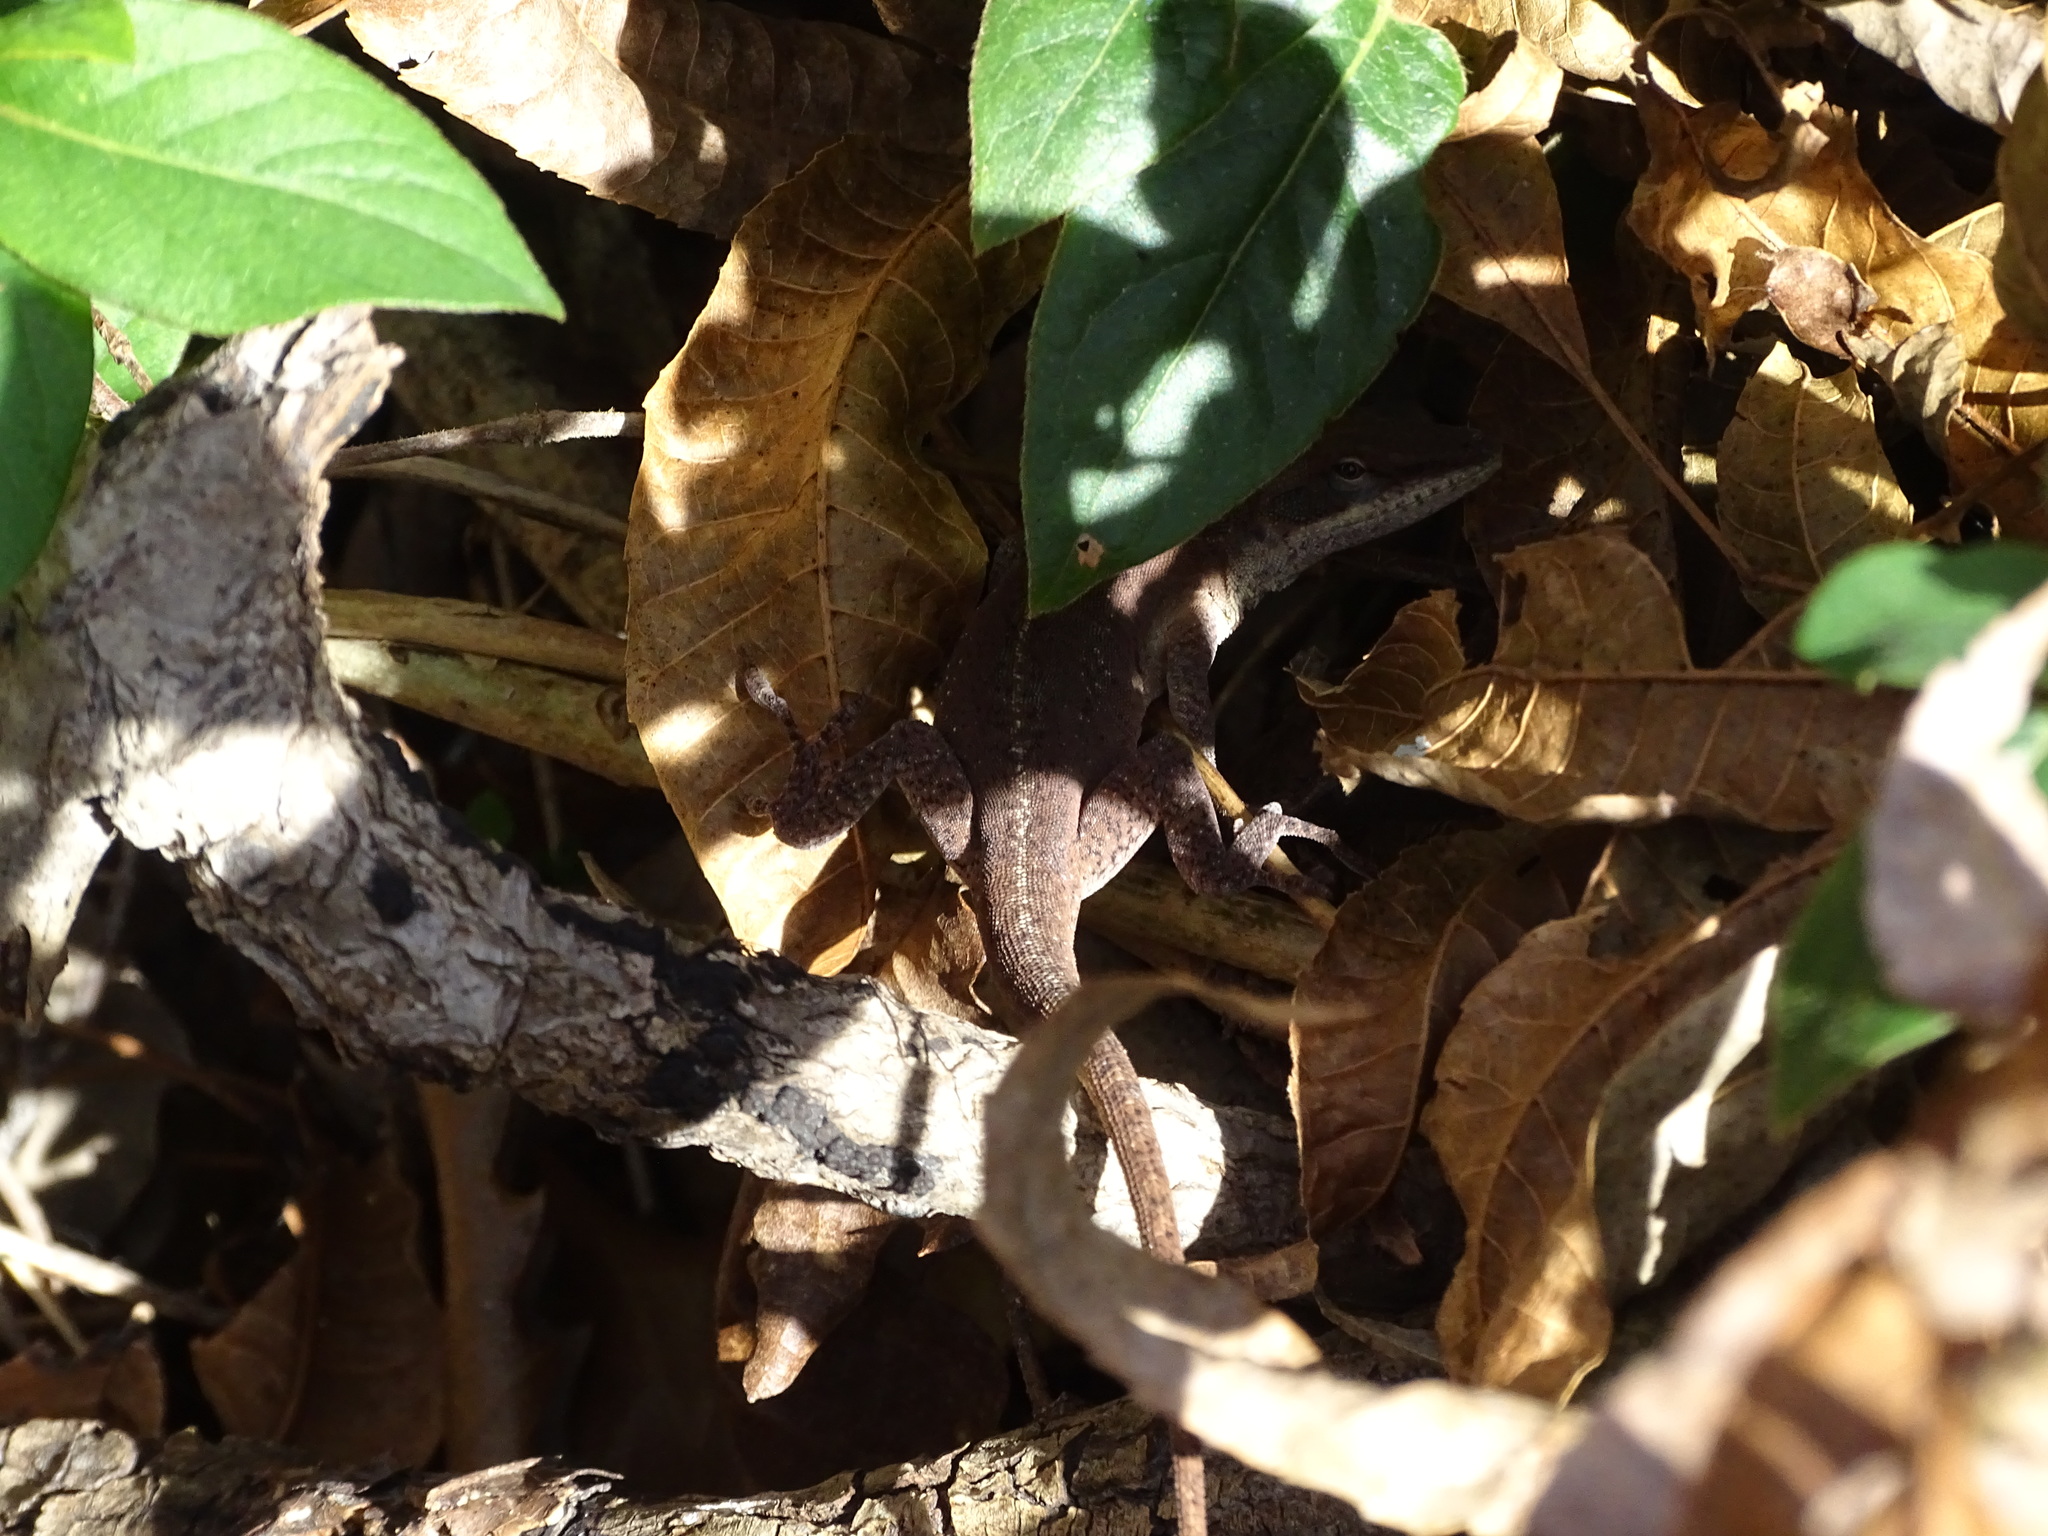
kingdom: Animalia
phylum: Chordata
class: Squamata
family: Dactyloidae
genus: Anolis
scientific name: Anolis carolinensis
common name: Green anole
